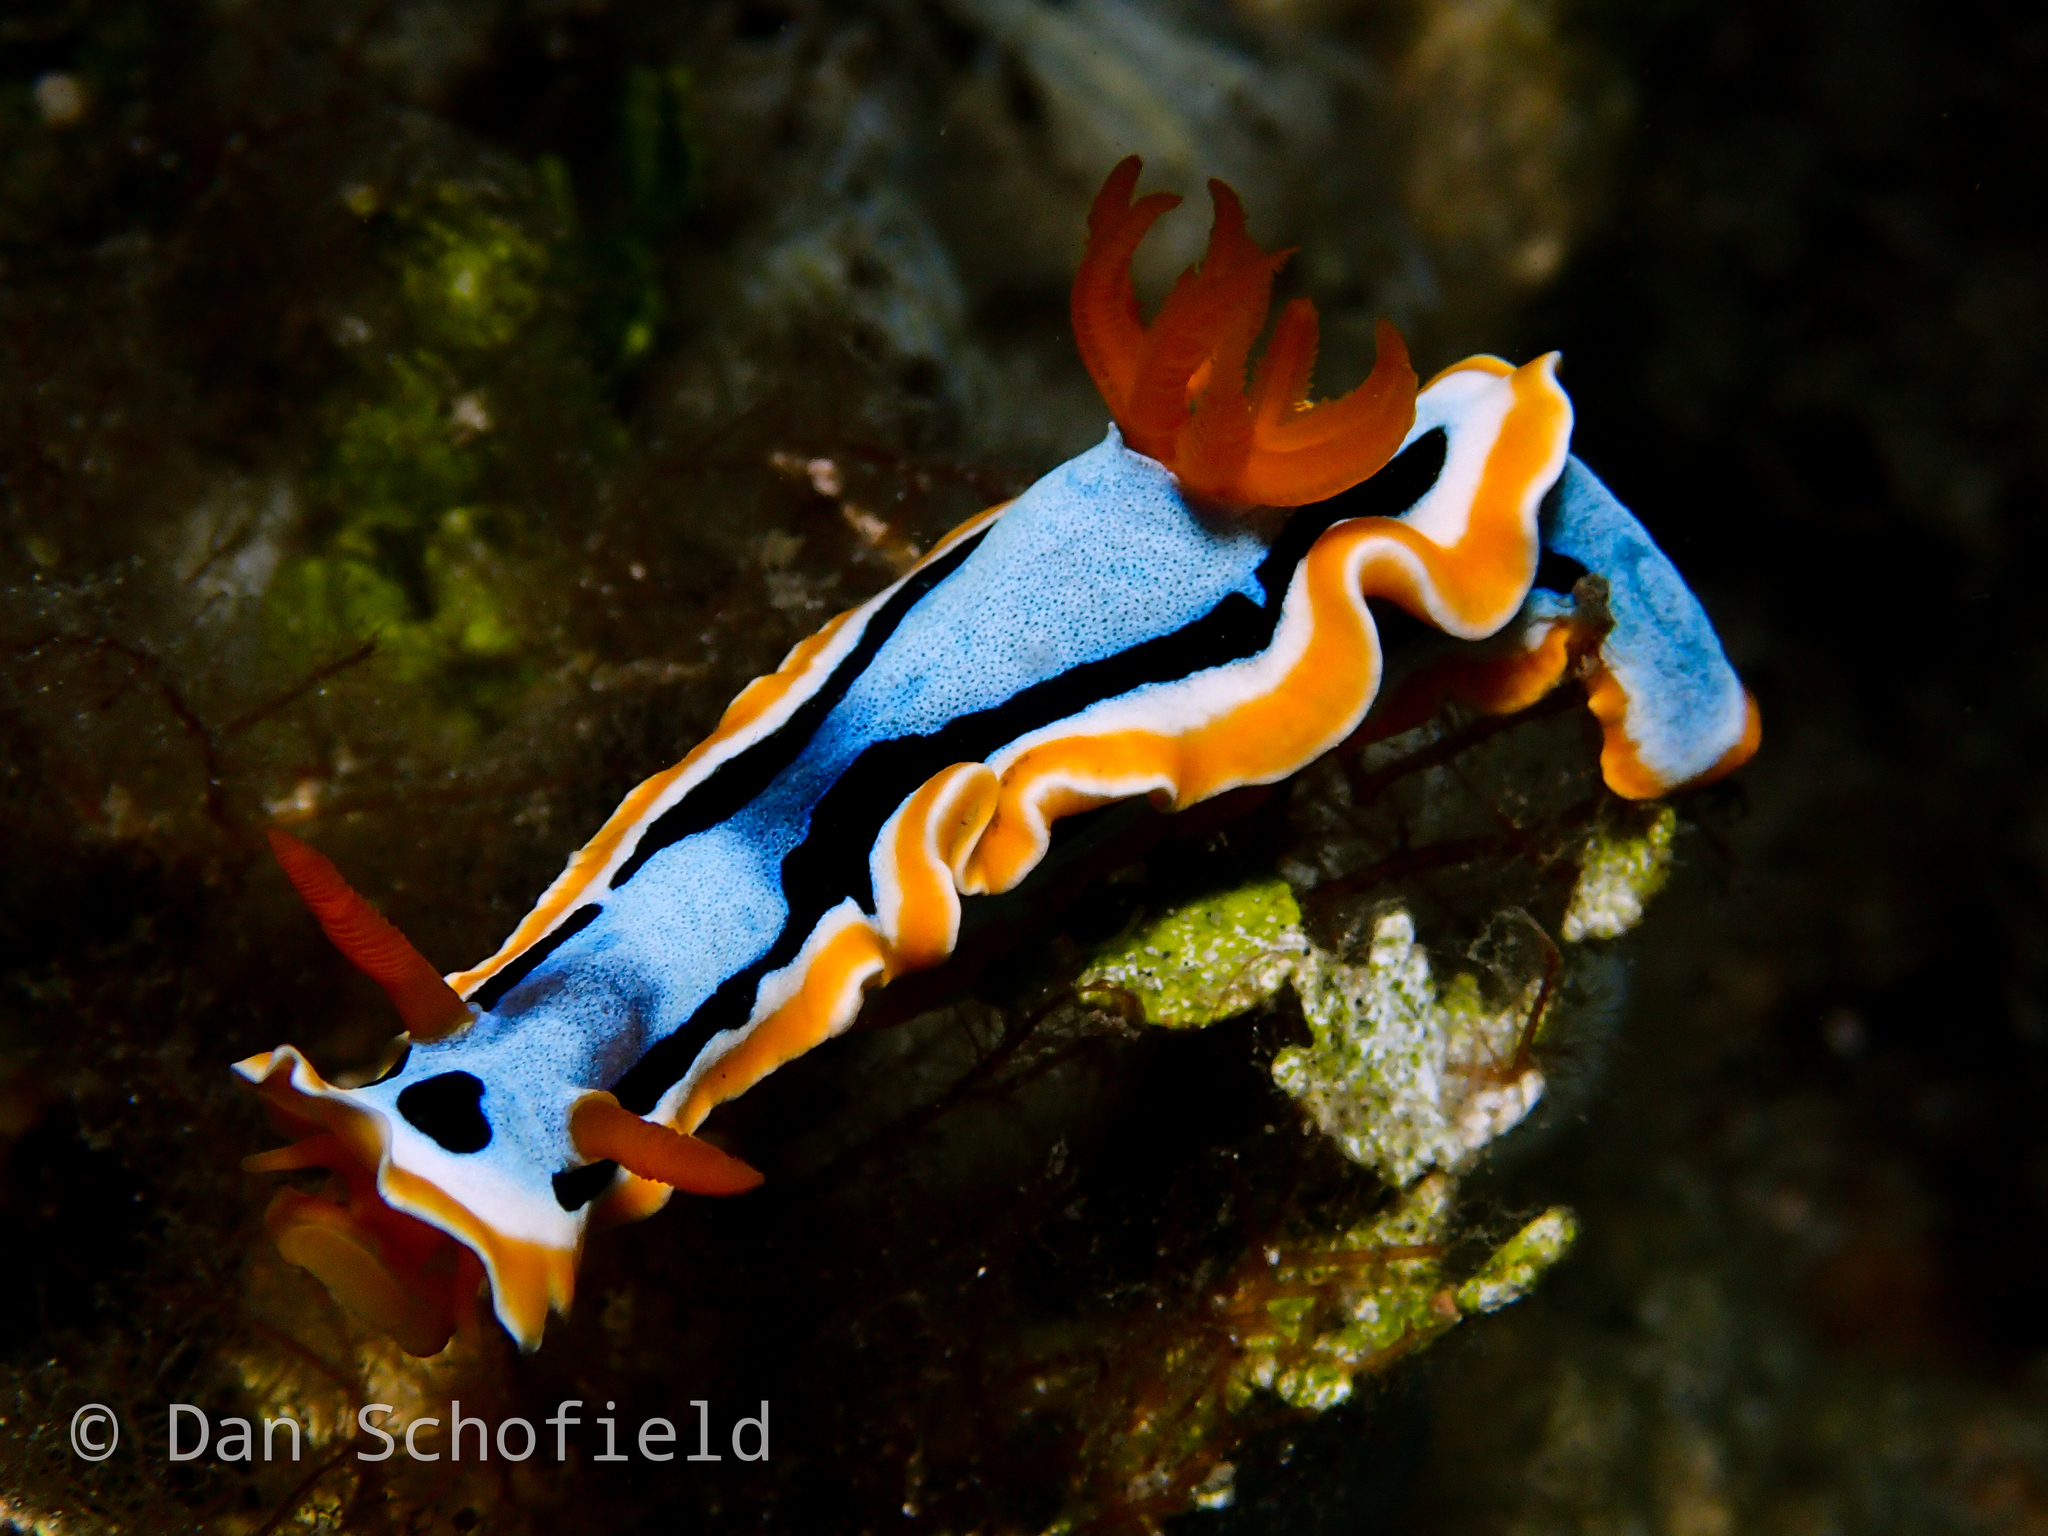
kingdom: Animalia
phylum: Mollusca
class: Gastropoda
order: Nudibranchia
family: Chromodorididae
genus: Chromodoris
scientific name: Chromodoris annae
